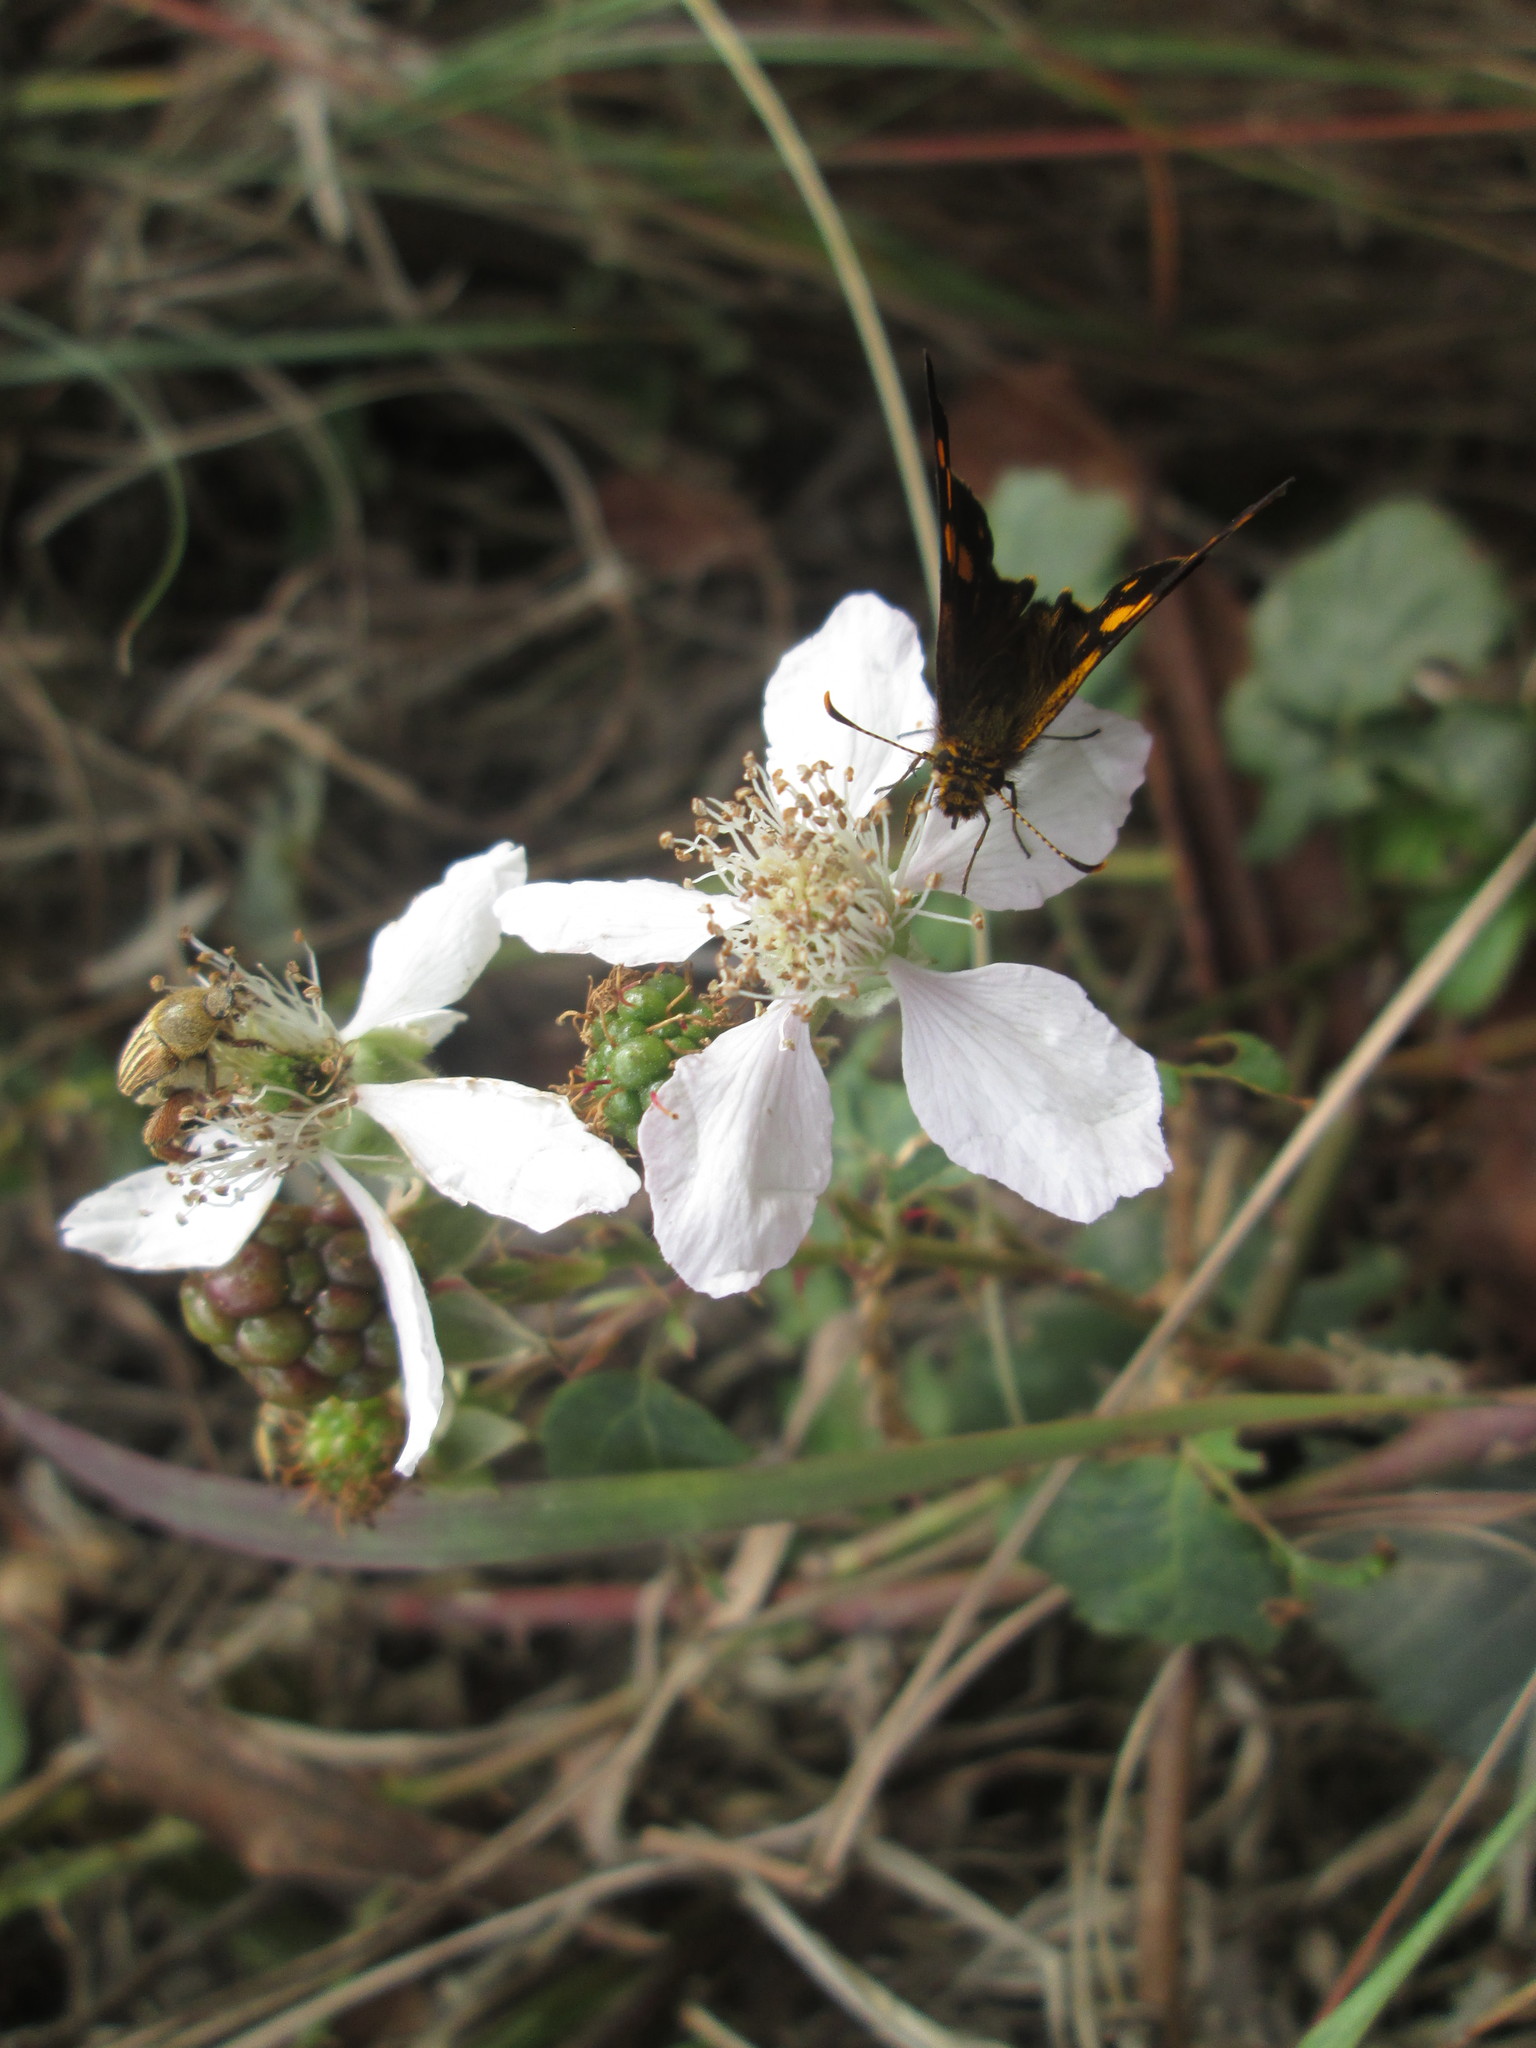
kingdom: Animalia
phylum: Arthropoda
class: Insecta
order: Lepidoptera
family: Hesperiidae
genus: Metisella
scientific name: Metisella metis
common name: Western gold-spotted sylph
